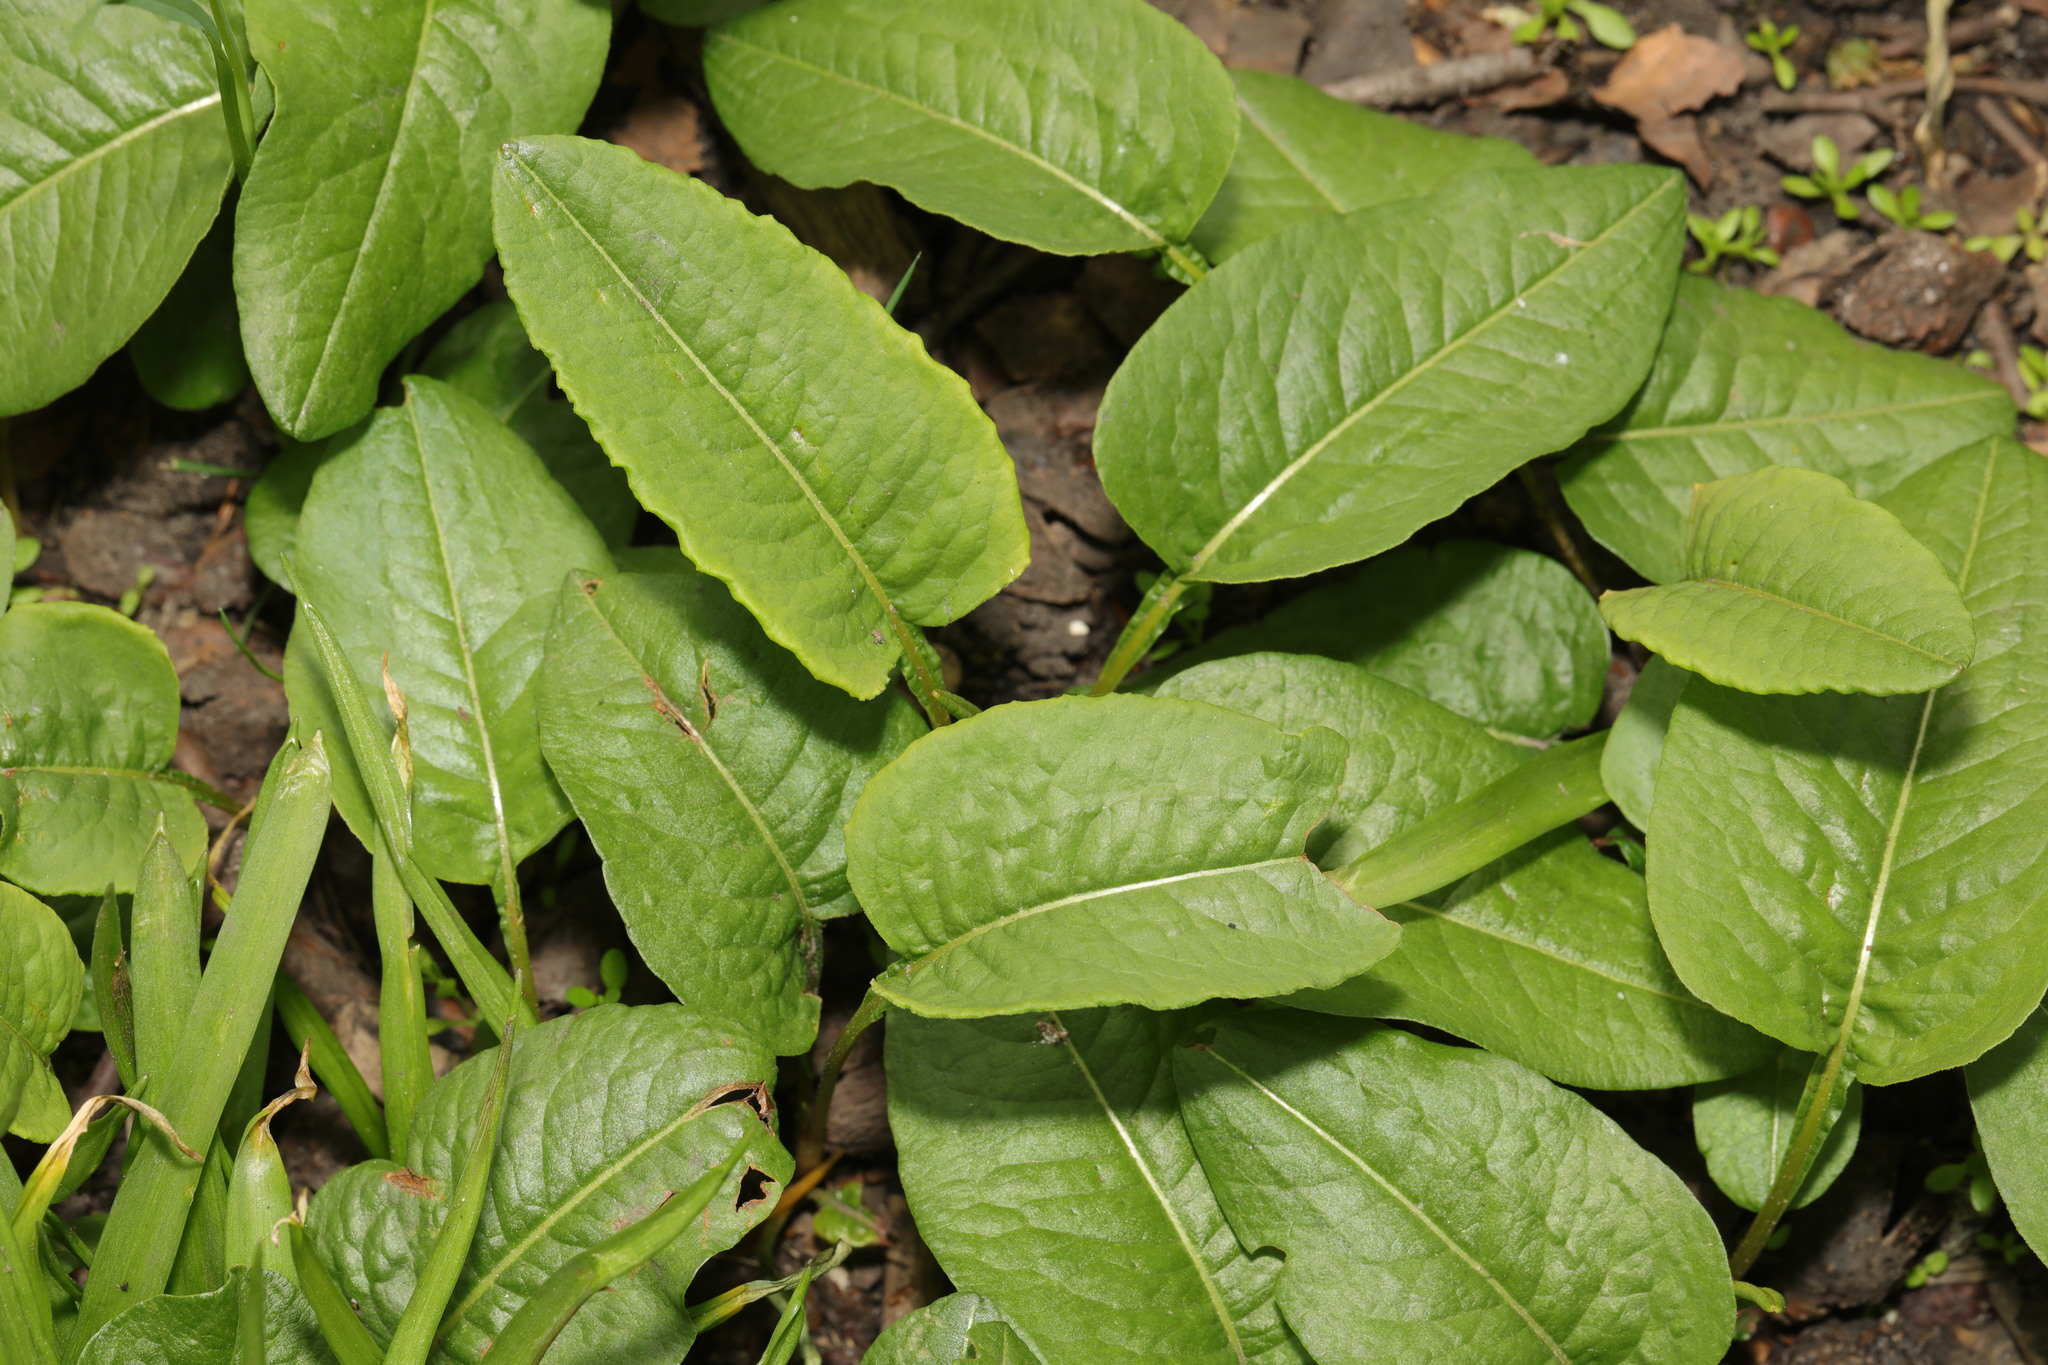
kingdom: Plantae
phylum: Tracheophyta
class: Magnoliopsida
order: Caryophyllales
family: Polygonaceae
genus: Bistorta
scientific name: Bistorta officinalis
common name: Common bistort
